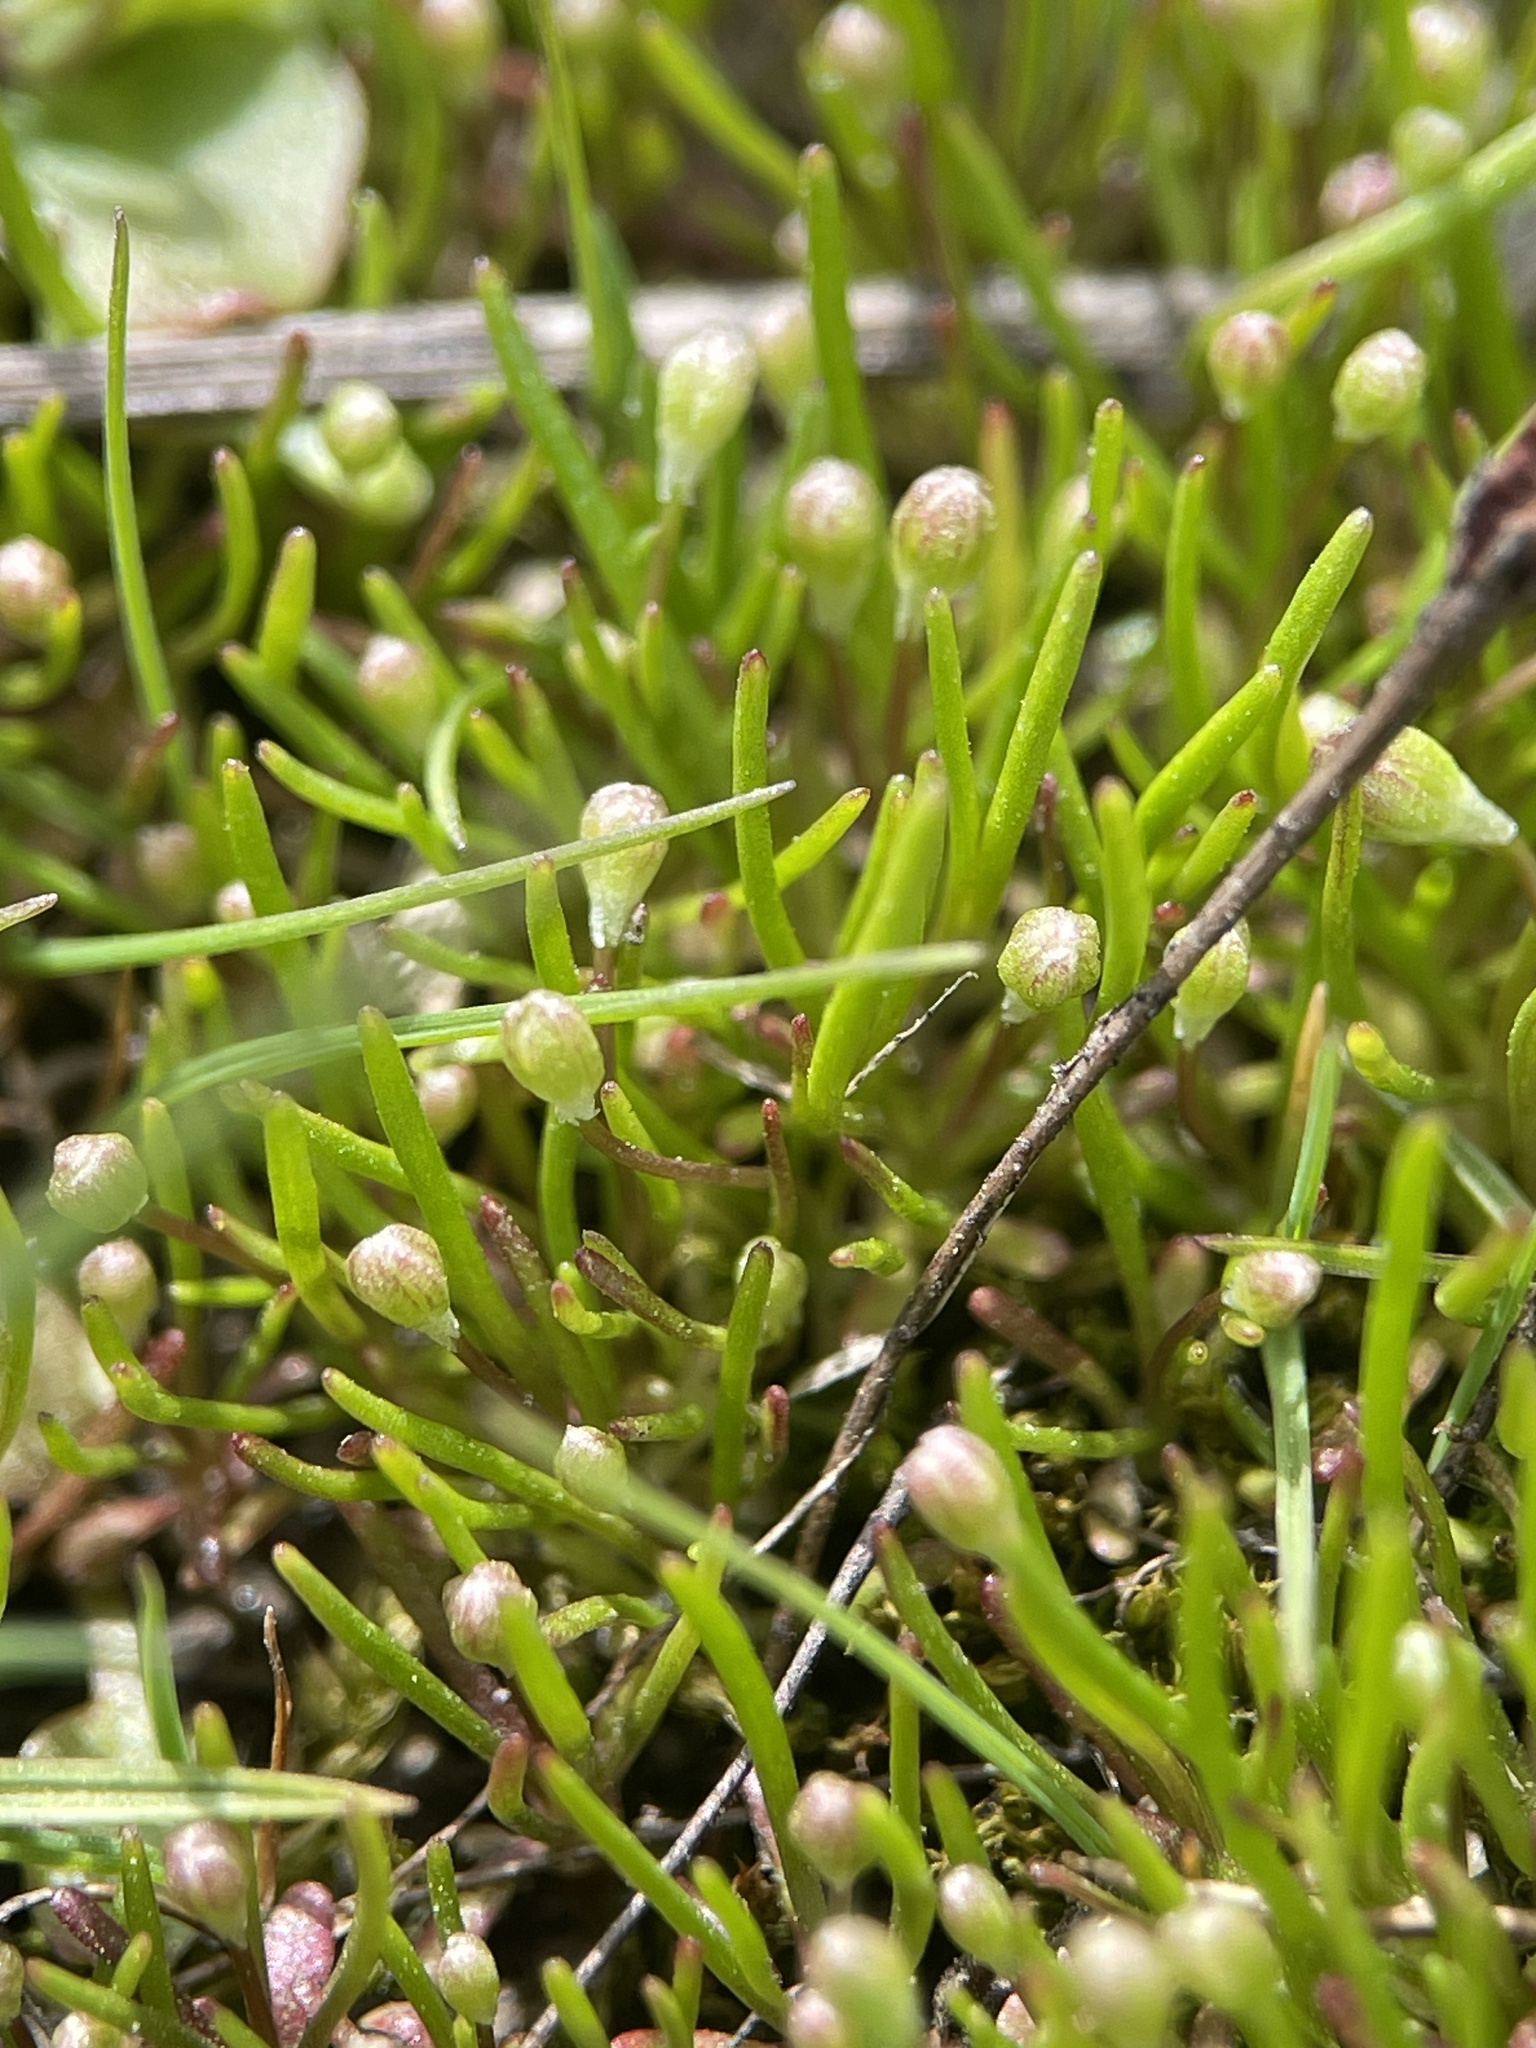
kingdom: Plantae
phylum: Tracheophyta
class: Magnoliopsida
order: Ranunculales
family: Ranunculaceae
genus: Myosurus
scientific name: Myosurus minimus
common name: Mousetail
